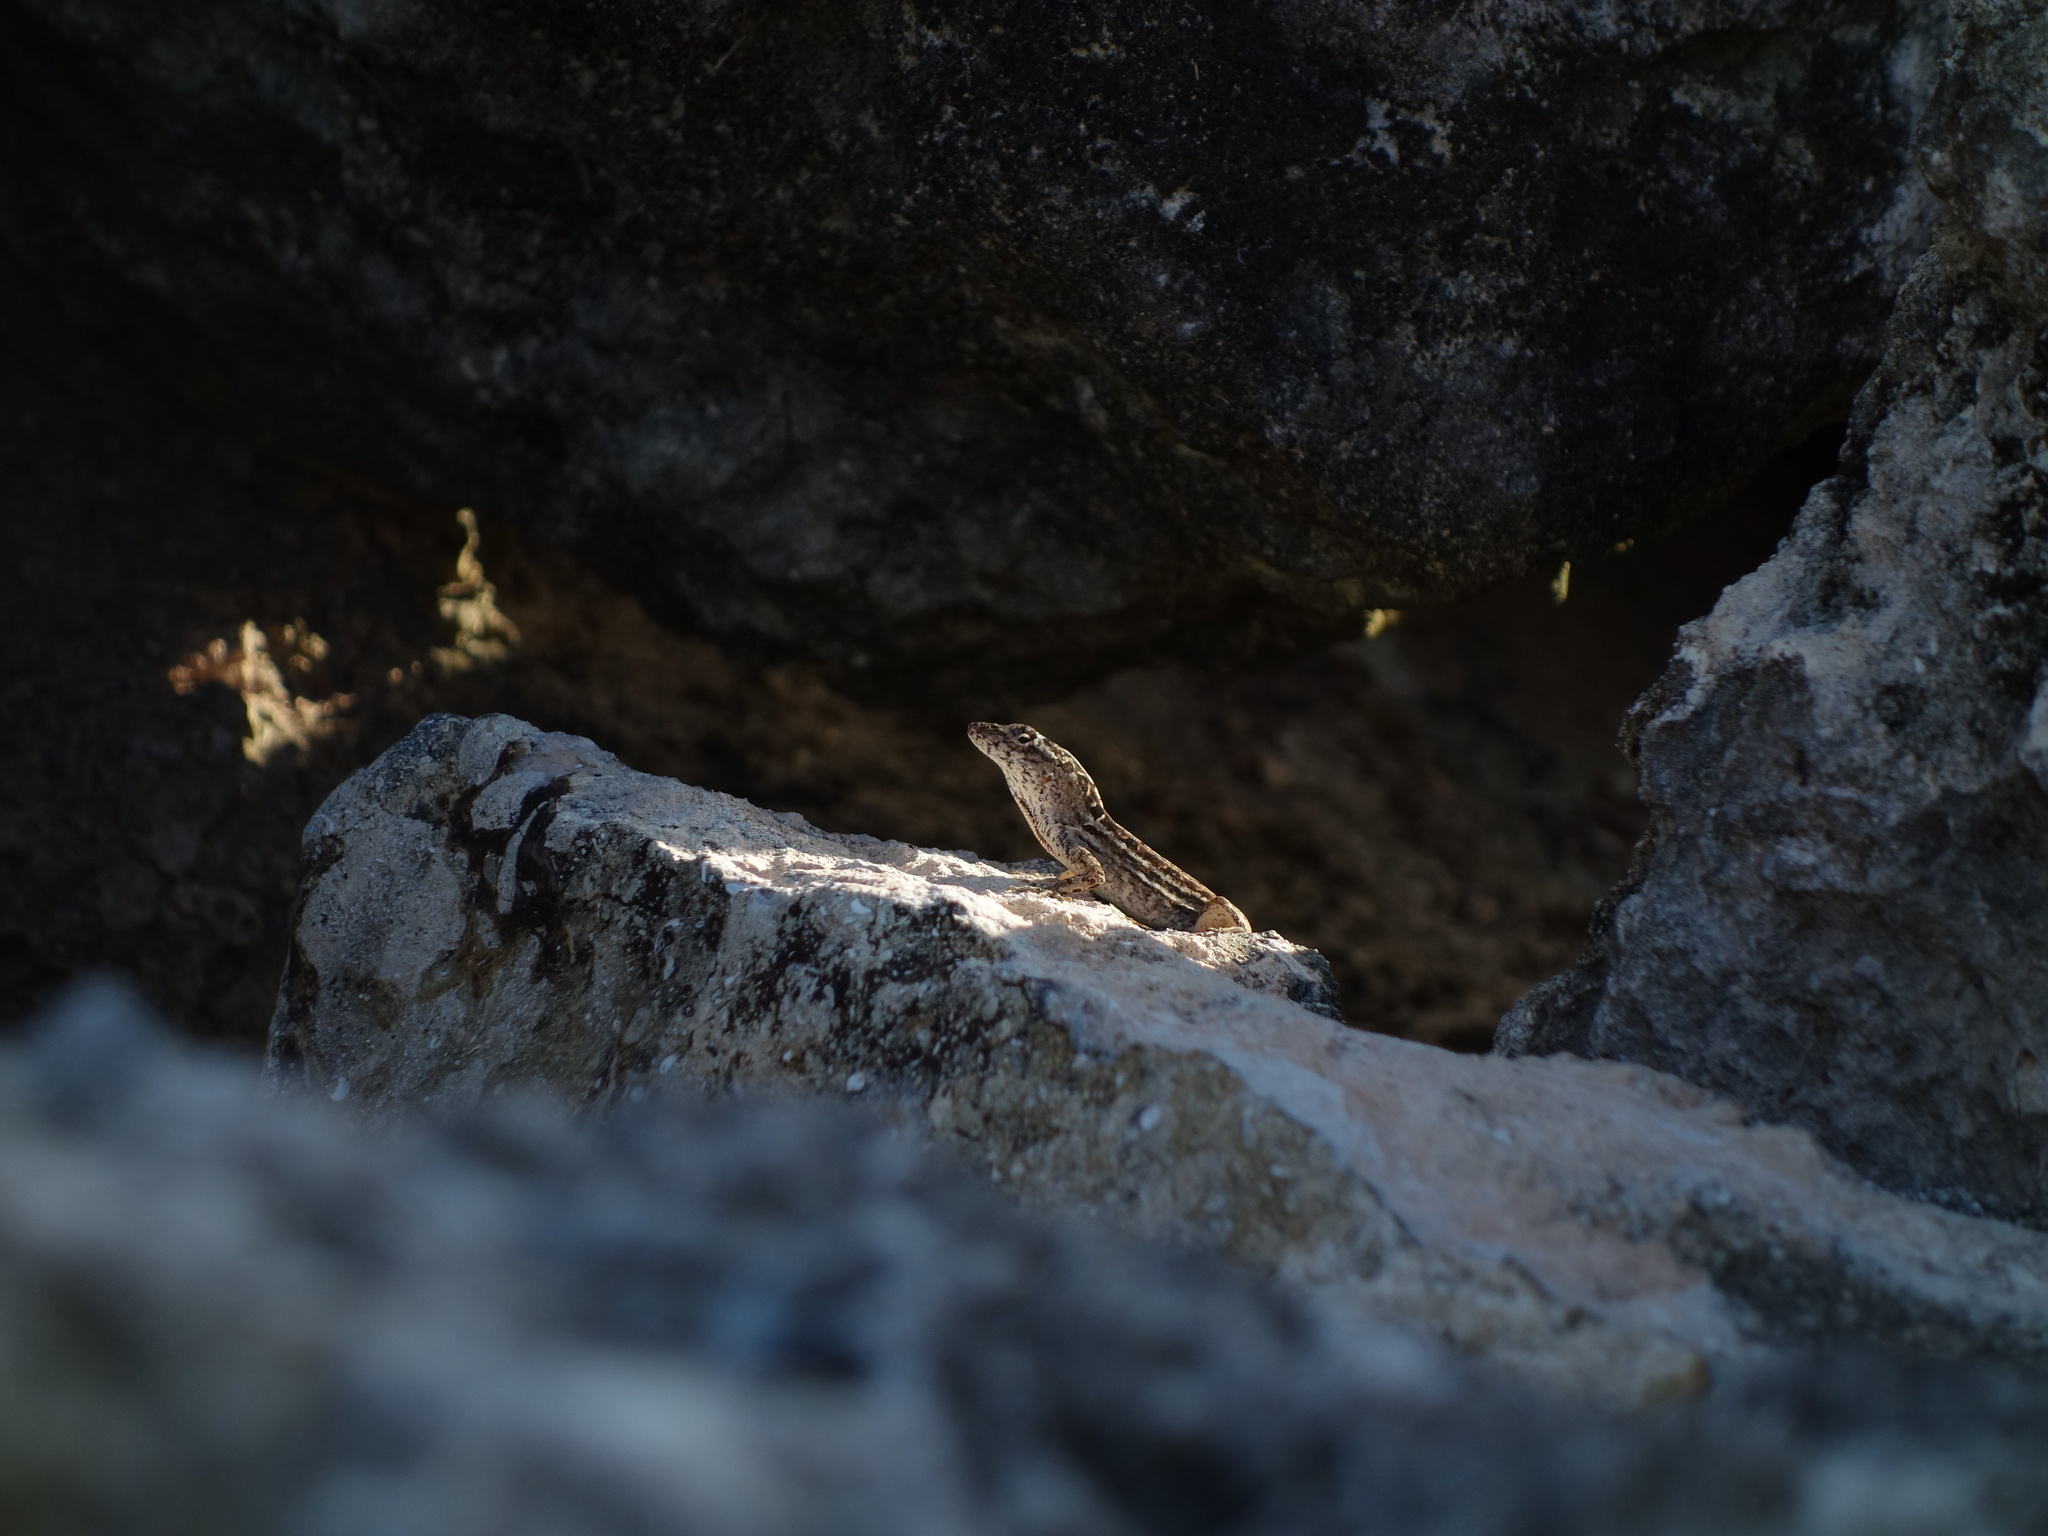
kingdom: Animalia
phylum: Chordata
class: Squamata
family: Dactyloidae
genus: Anolis
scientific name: Anolis sagrei
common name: Brown anole
